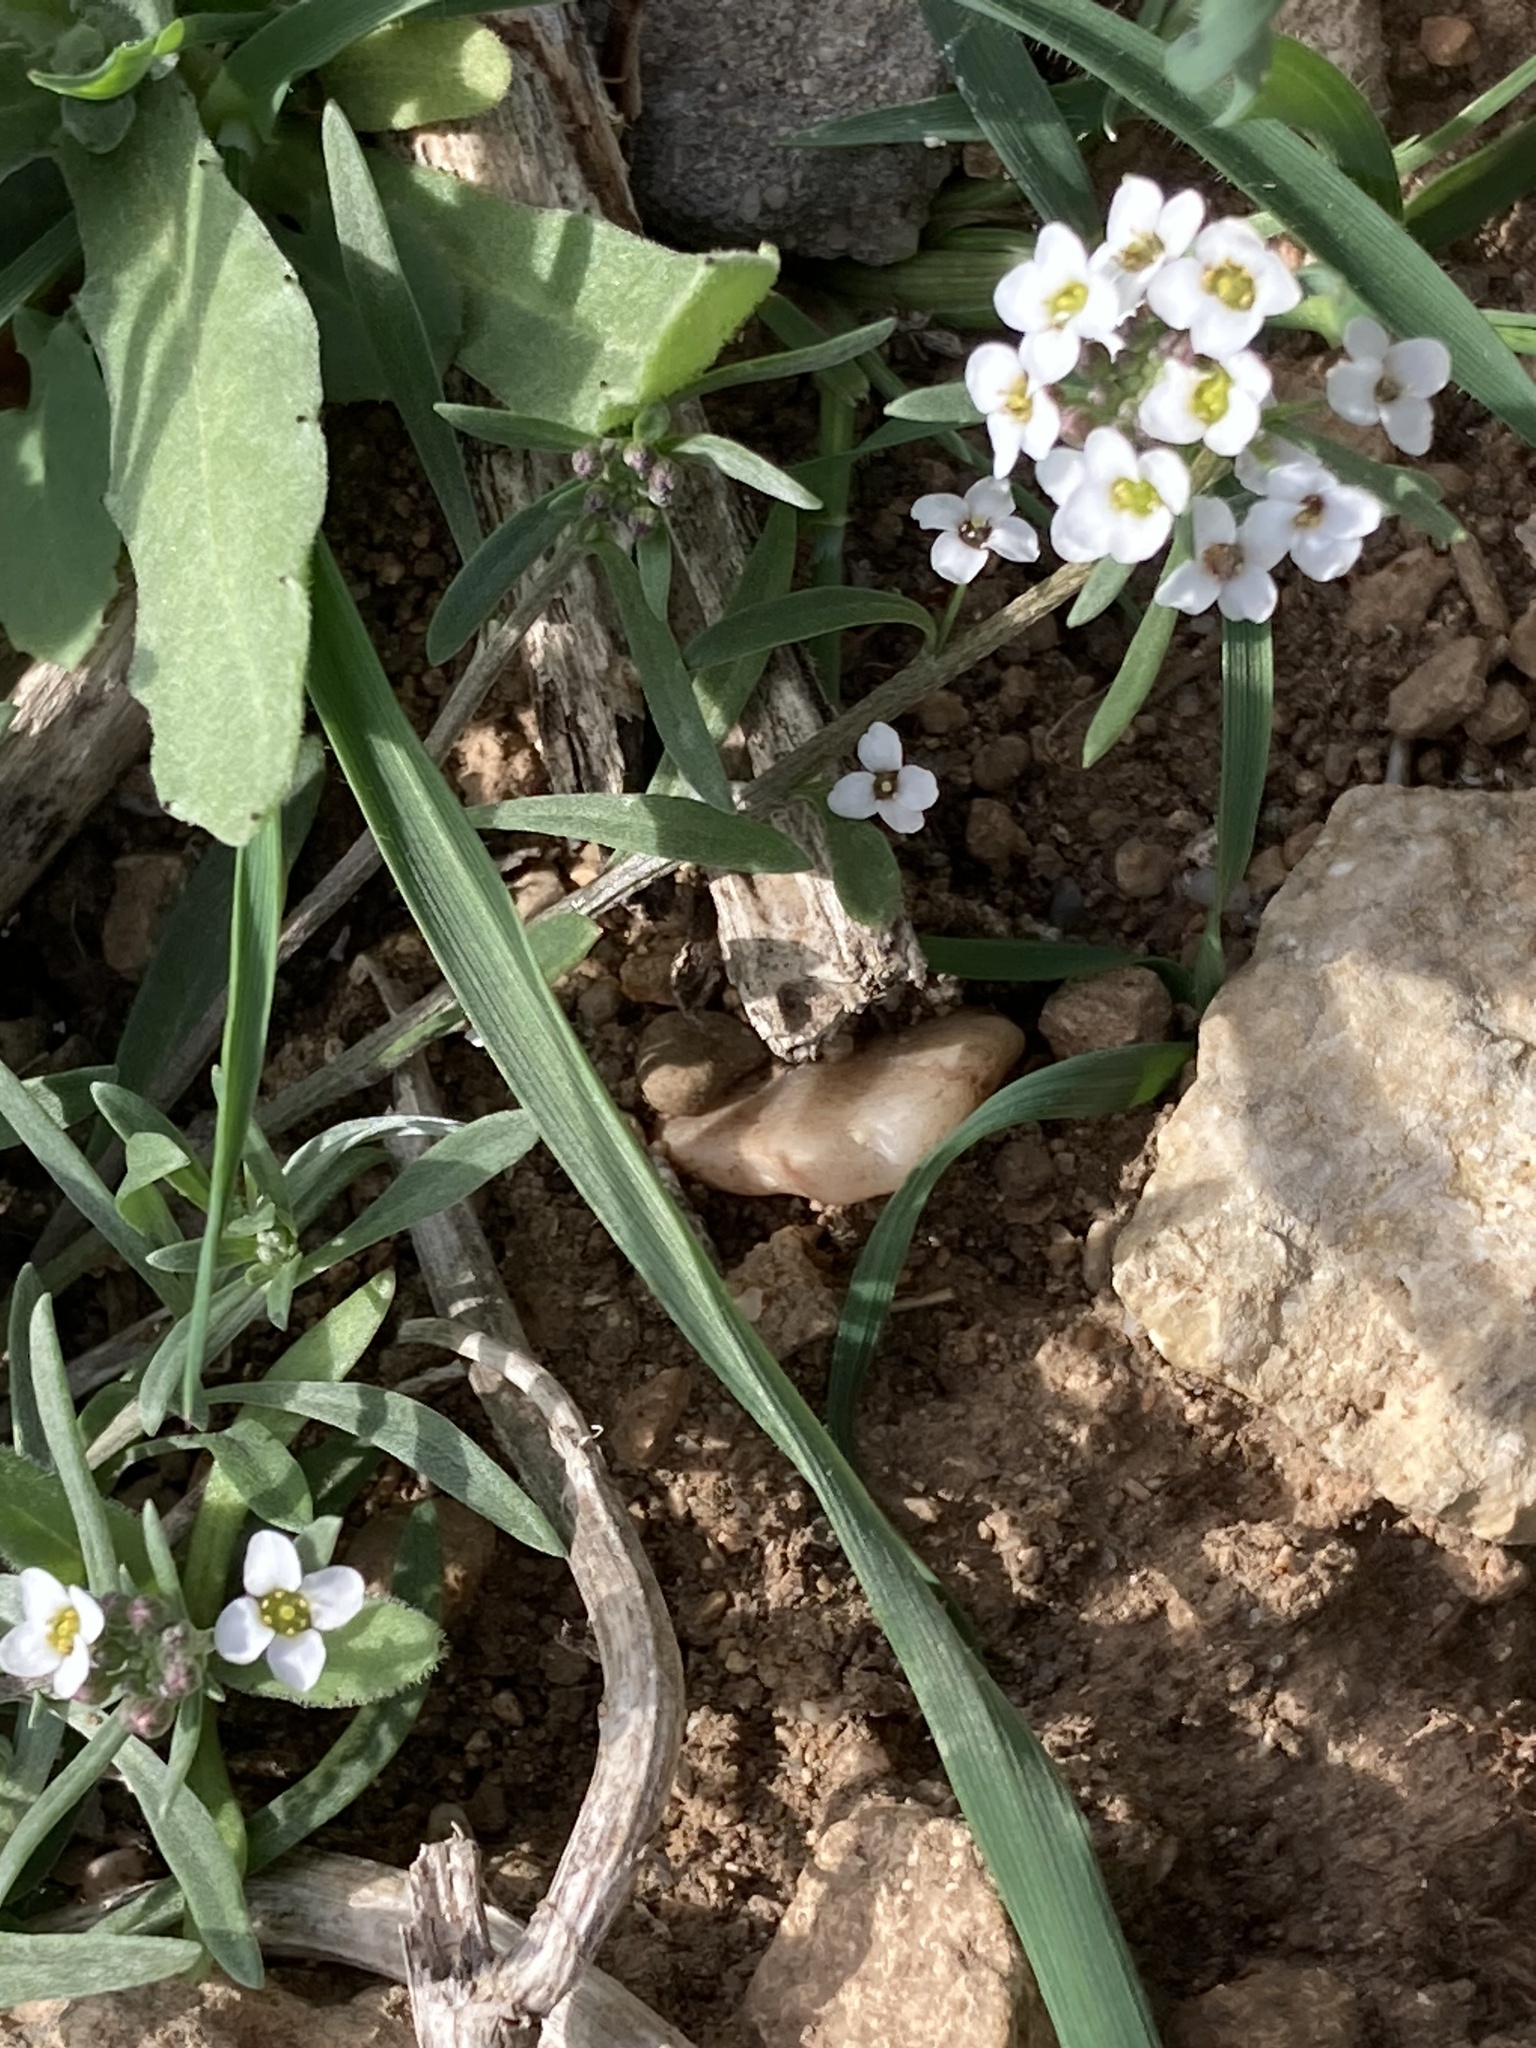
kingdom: Plantae
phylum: Tracheophyta
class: Magnoliopsida
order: Brassicales
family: Brassicaceae
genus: Lobularia
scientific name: Lobularia maritima
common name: Sweet alison
